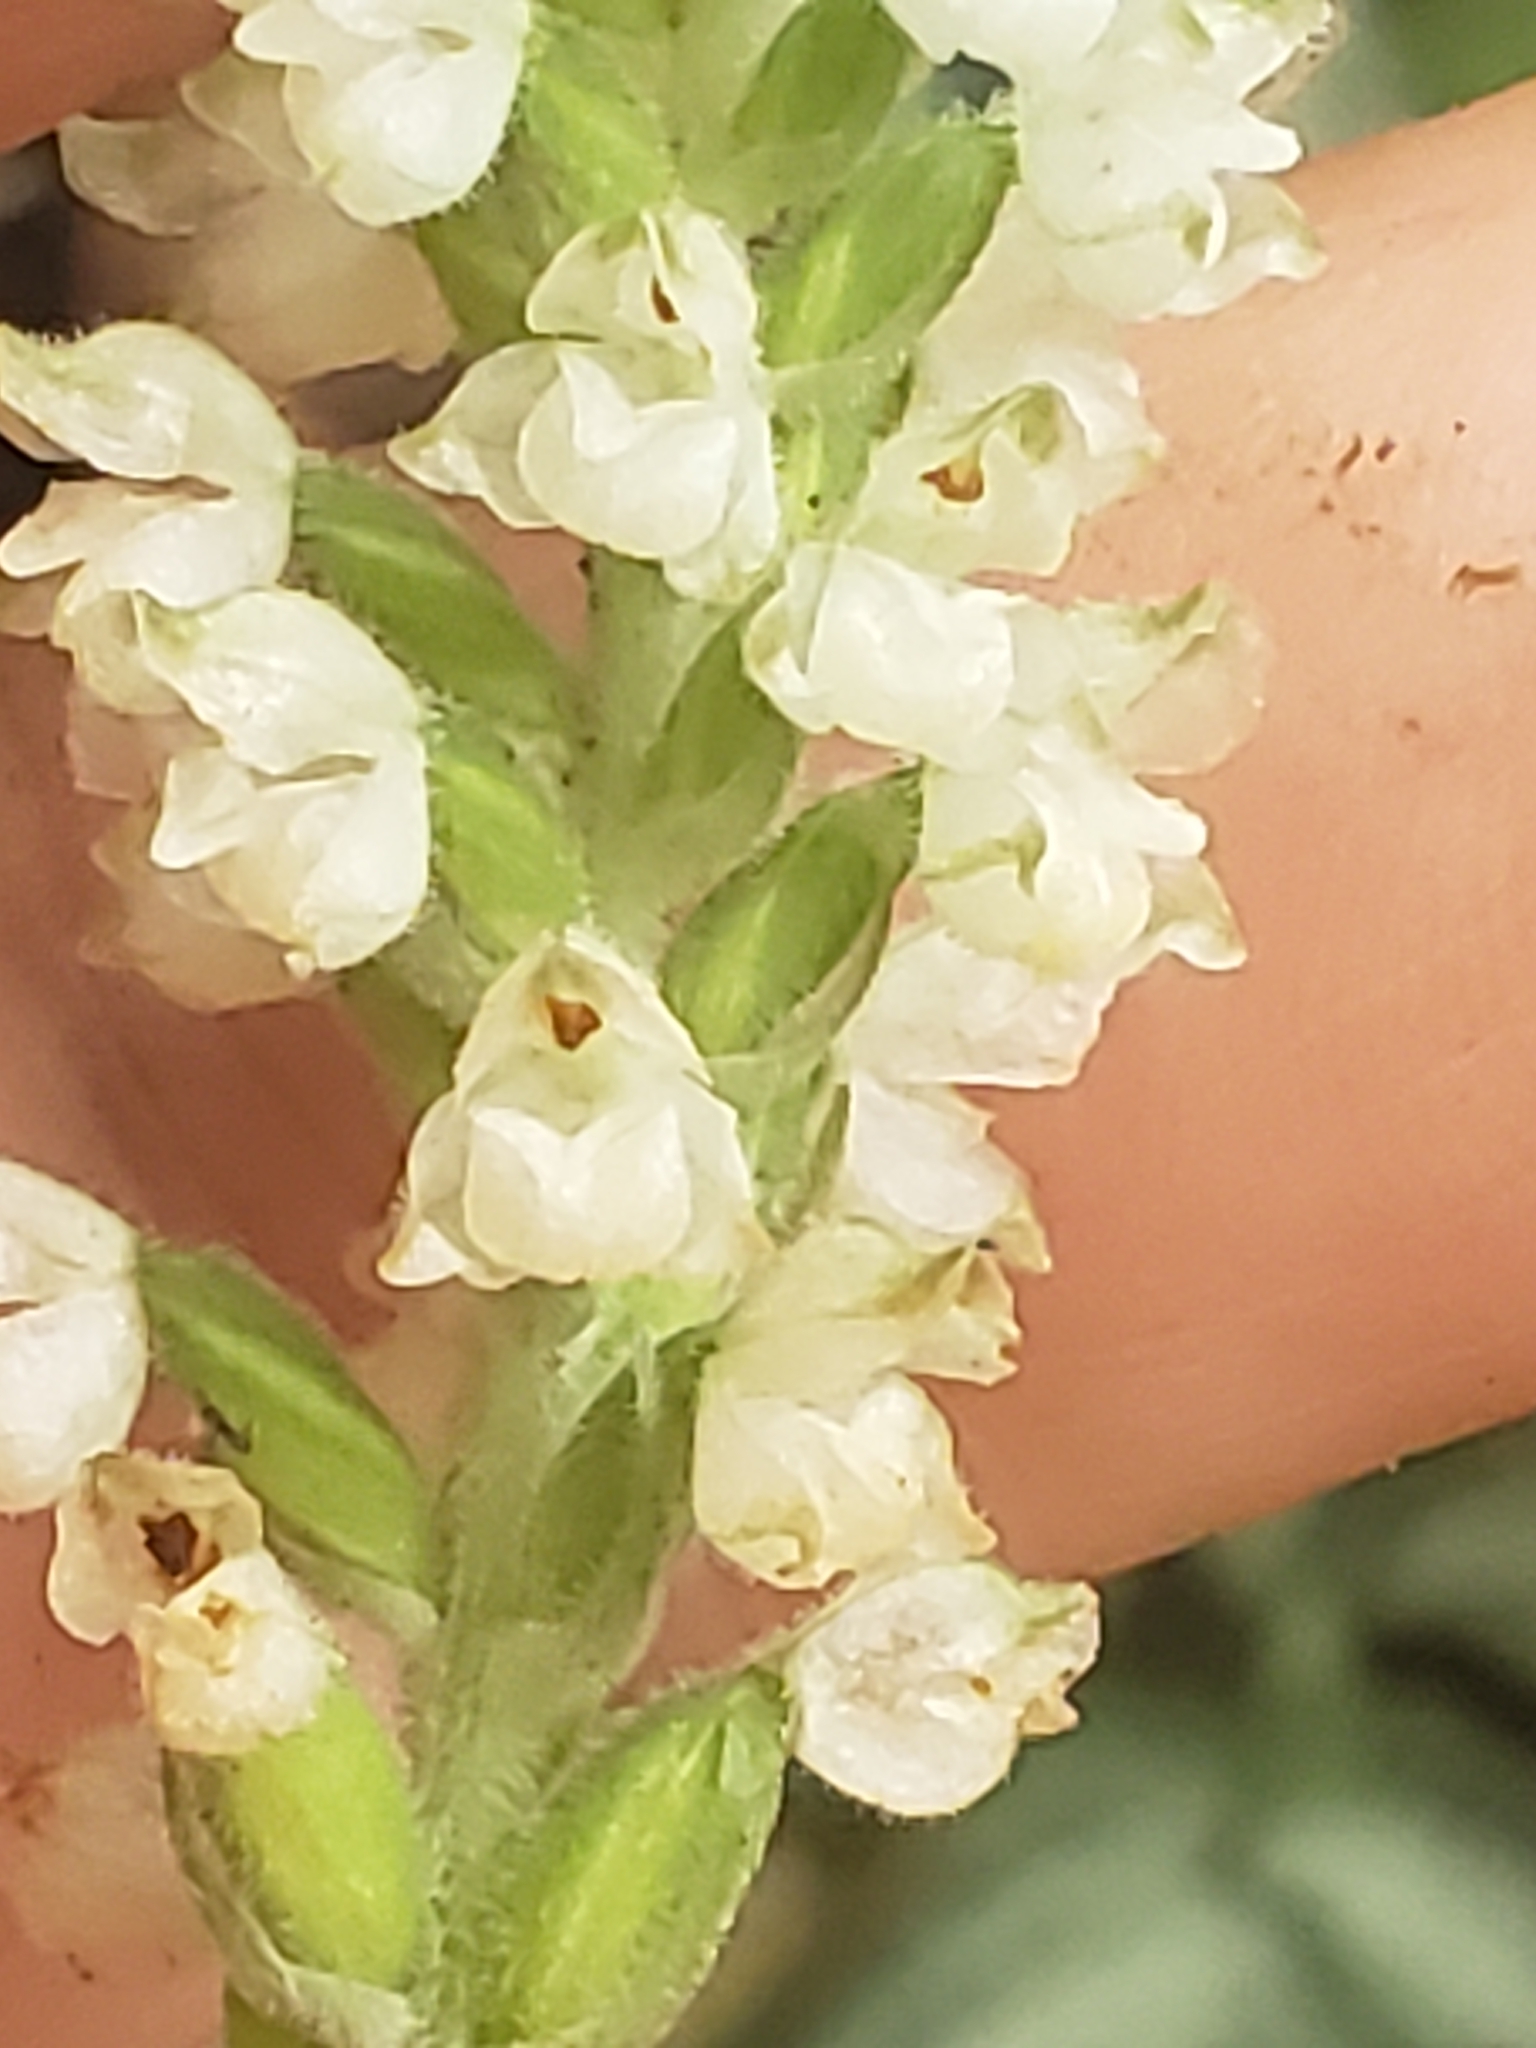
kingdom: Plantae
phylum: Tracheophyta
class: Liliopsida
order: Asparagales
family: Orchidaceae
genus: Goodyera
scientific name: Goodyera pubescens
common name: Downy rattlesnake-plantain
